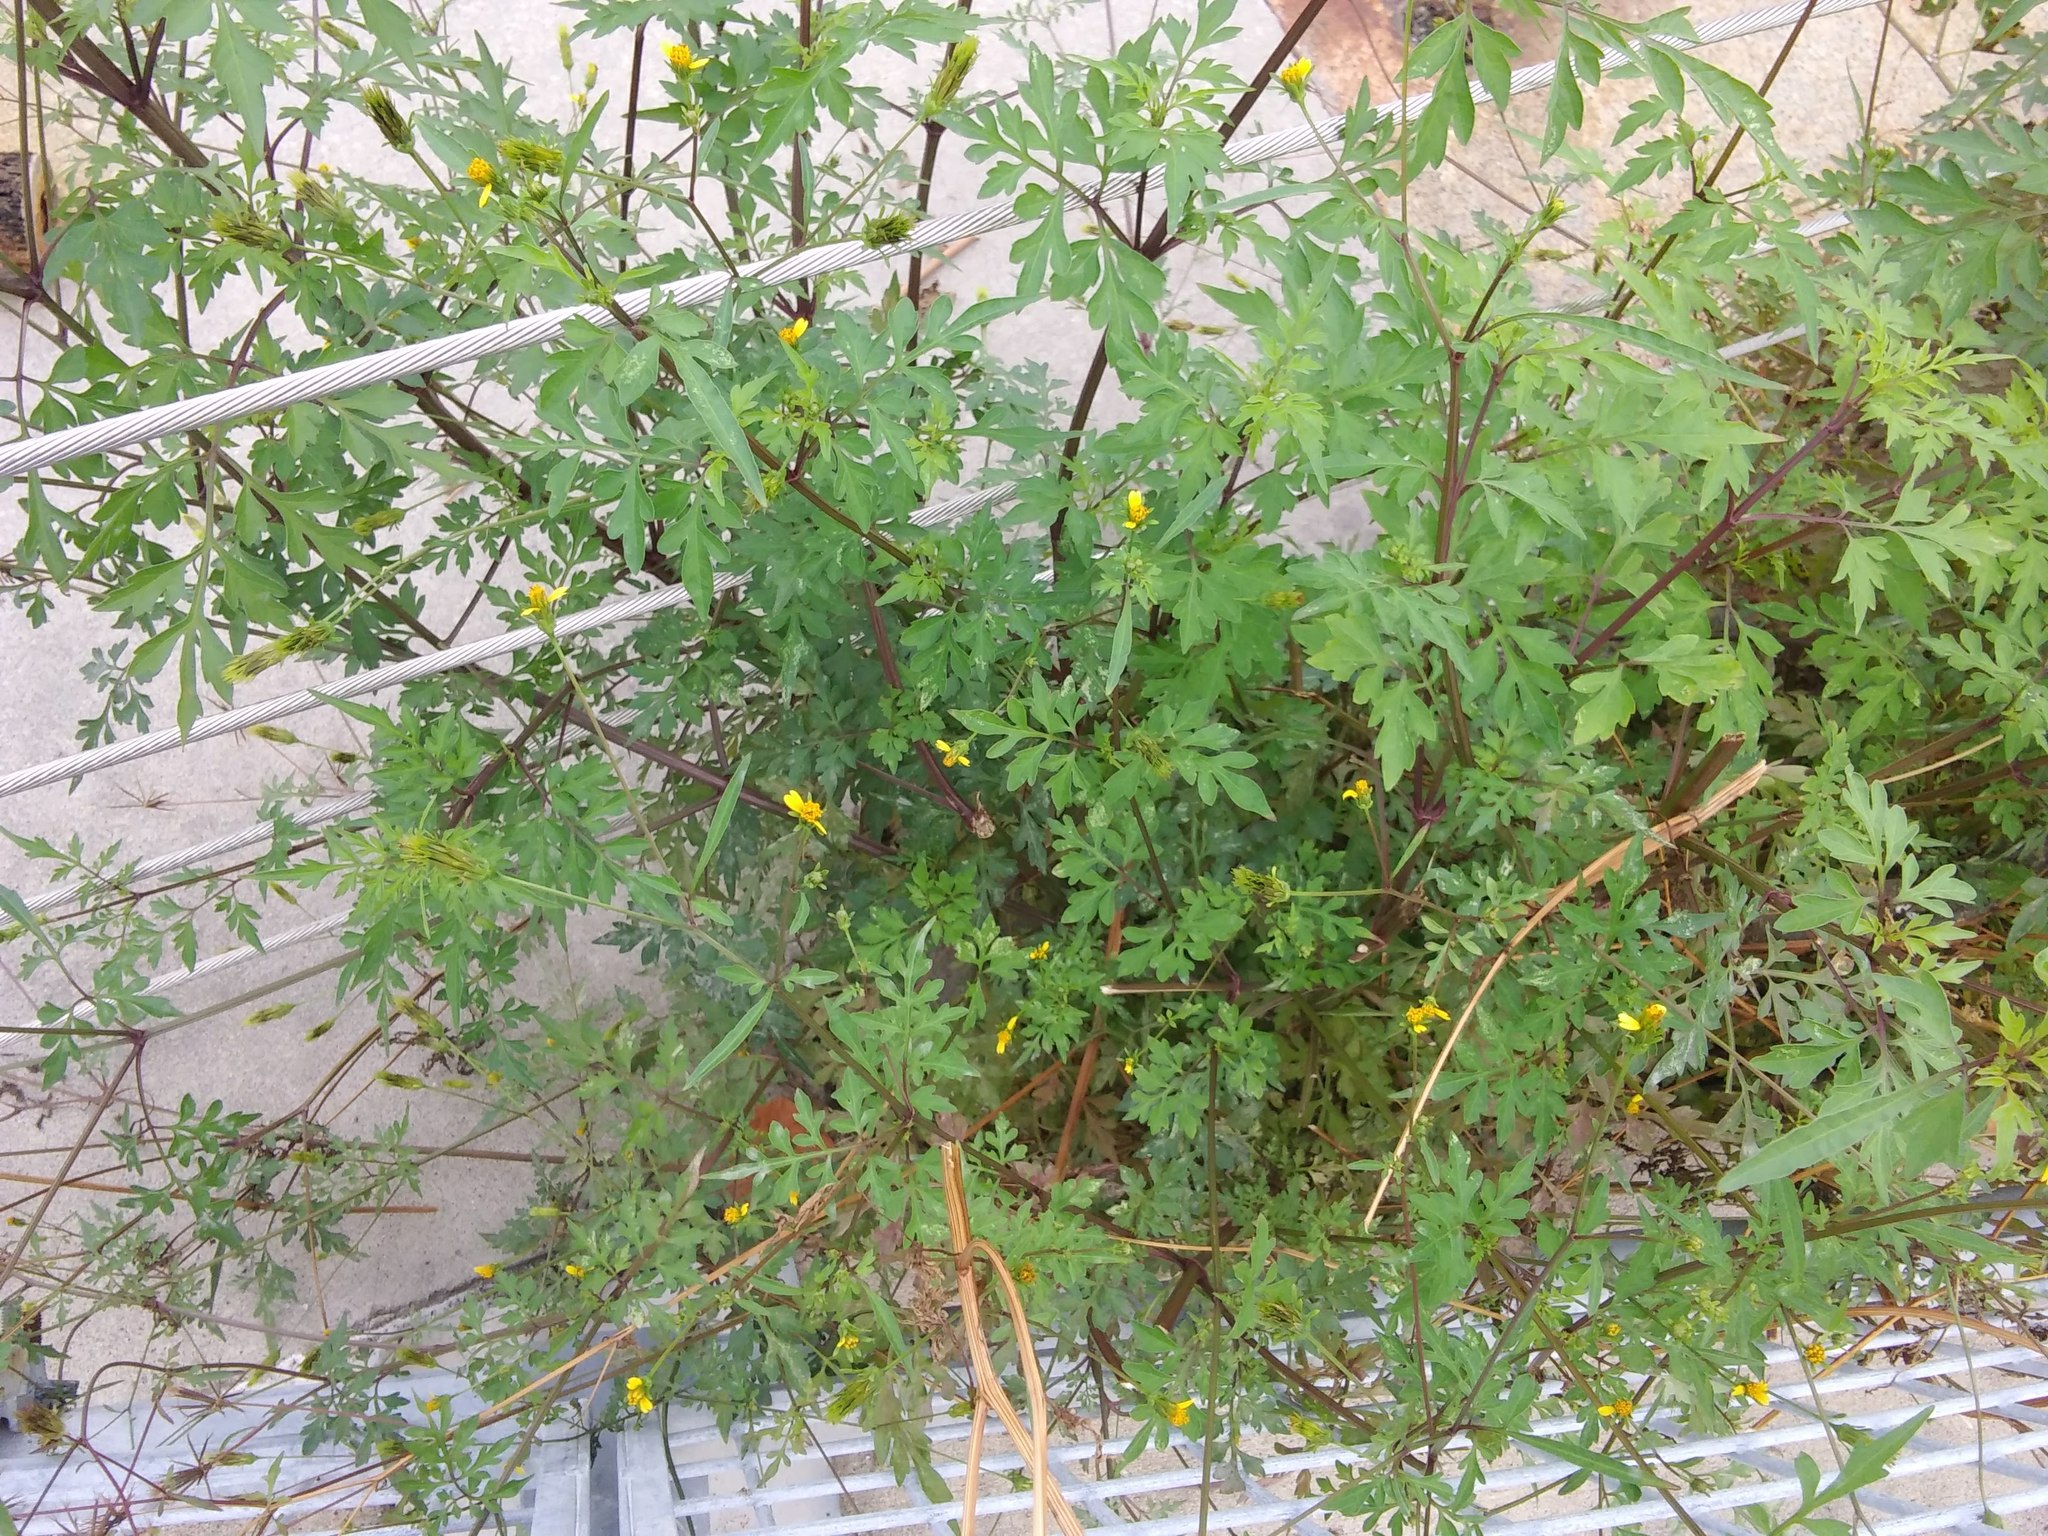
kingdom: Plantae
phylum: Tracheophyta
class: Magnoliopsida
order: Asterales
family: Asteraceae
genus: Bidens
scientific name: Bidens bipinnata
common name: Spanish-needles
